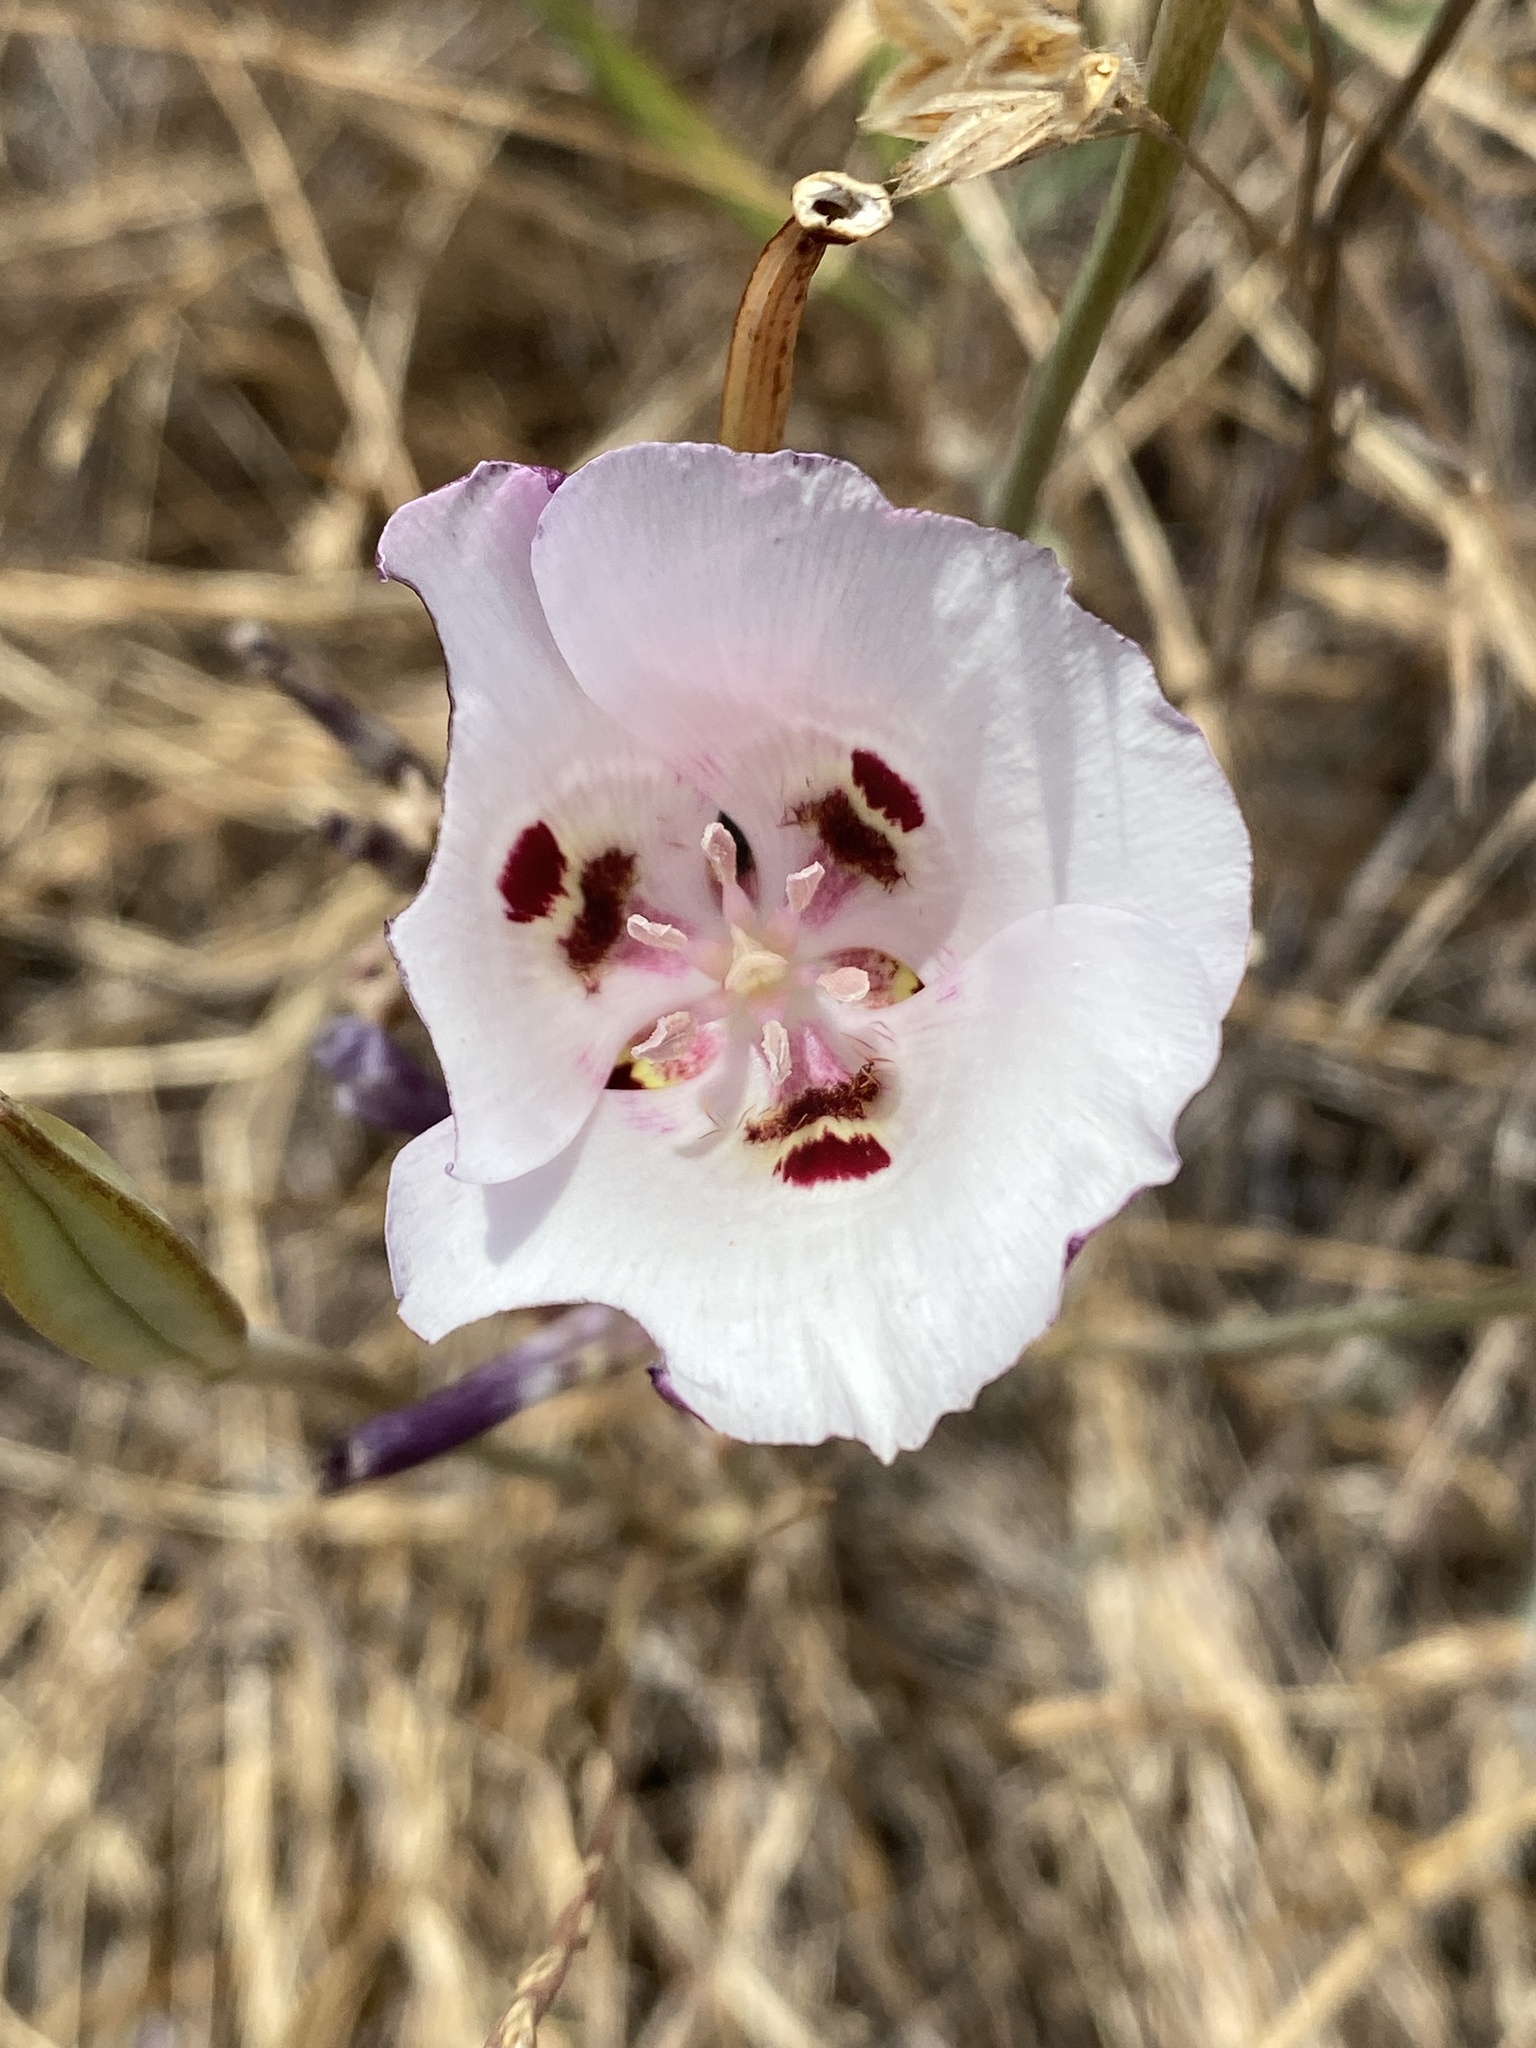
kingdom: Plantae
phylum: Tracheophyta
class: Liliopsida
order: Liliales
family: Liliaceae
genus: Calochortus
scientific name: Calochortus argillosus
